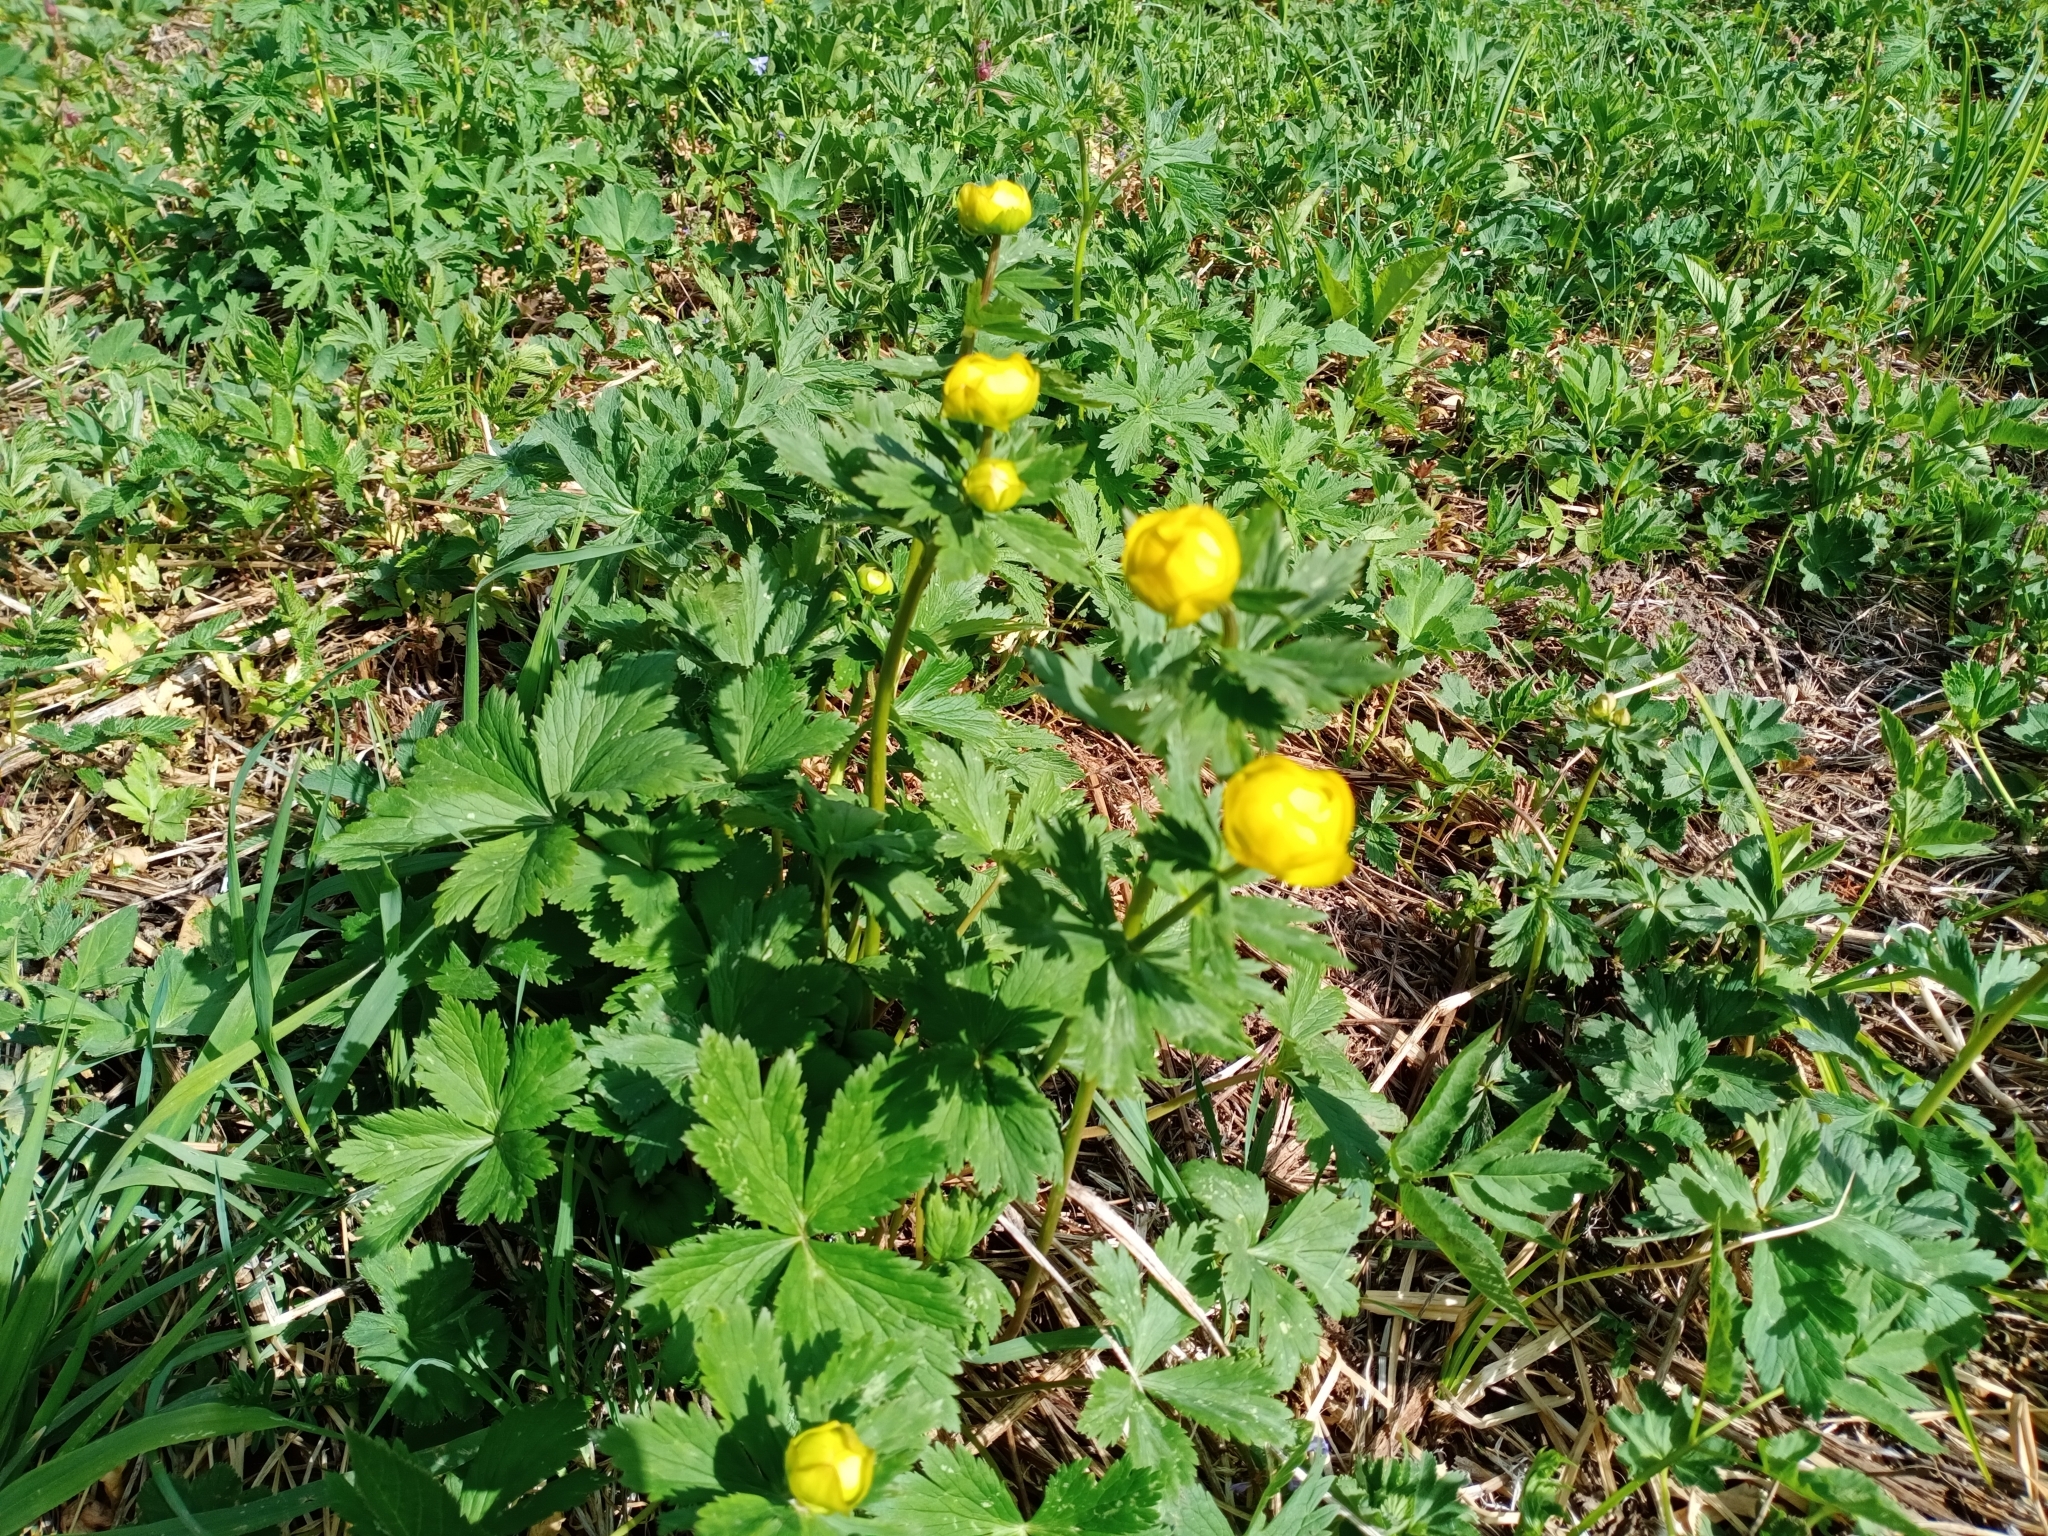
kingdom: Plantae
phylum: Tracheophyta
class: Magnoliopsida
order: Ranunculales
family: Ranunculaceae
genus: Trollius
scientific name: Trollius europaeus
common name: European globeflower
